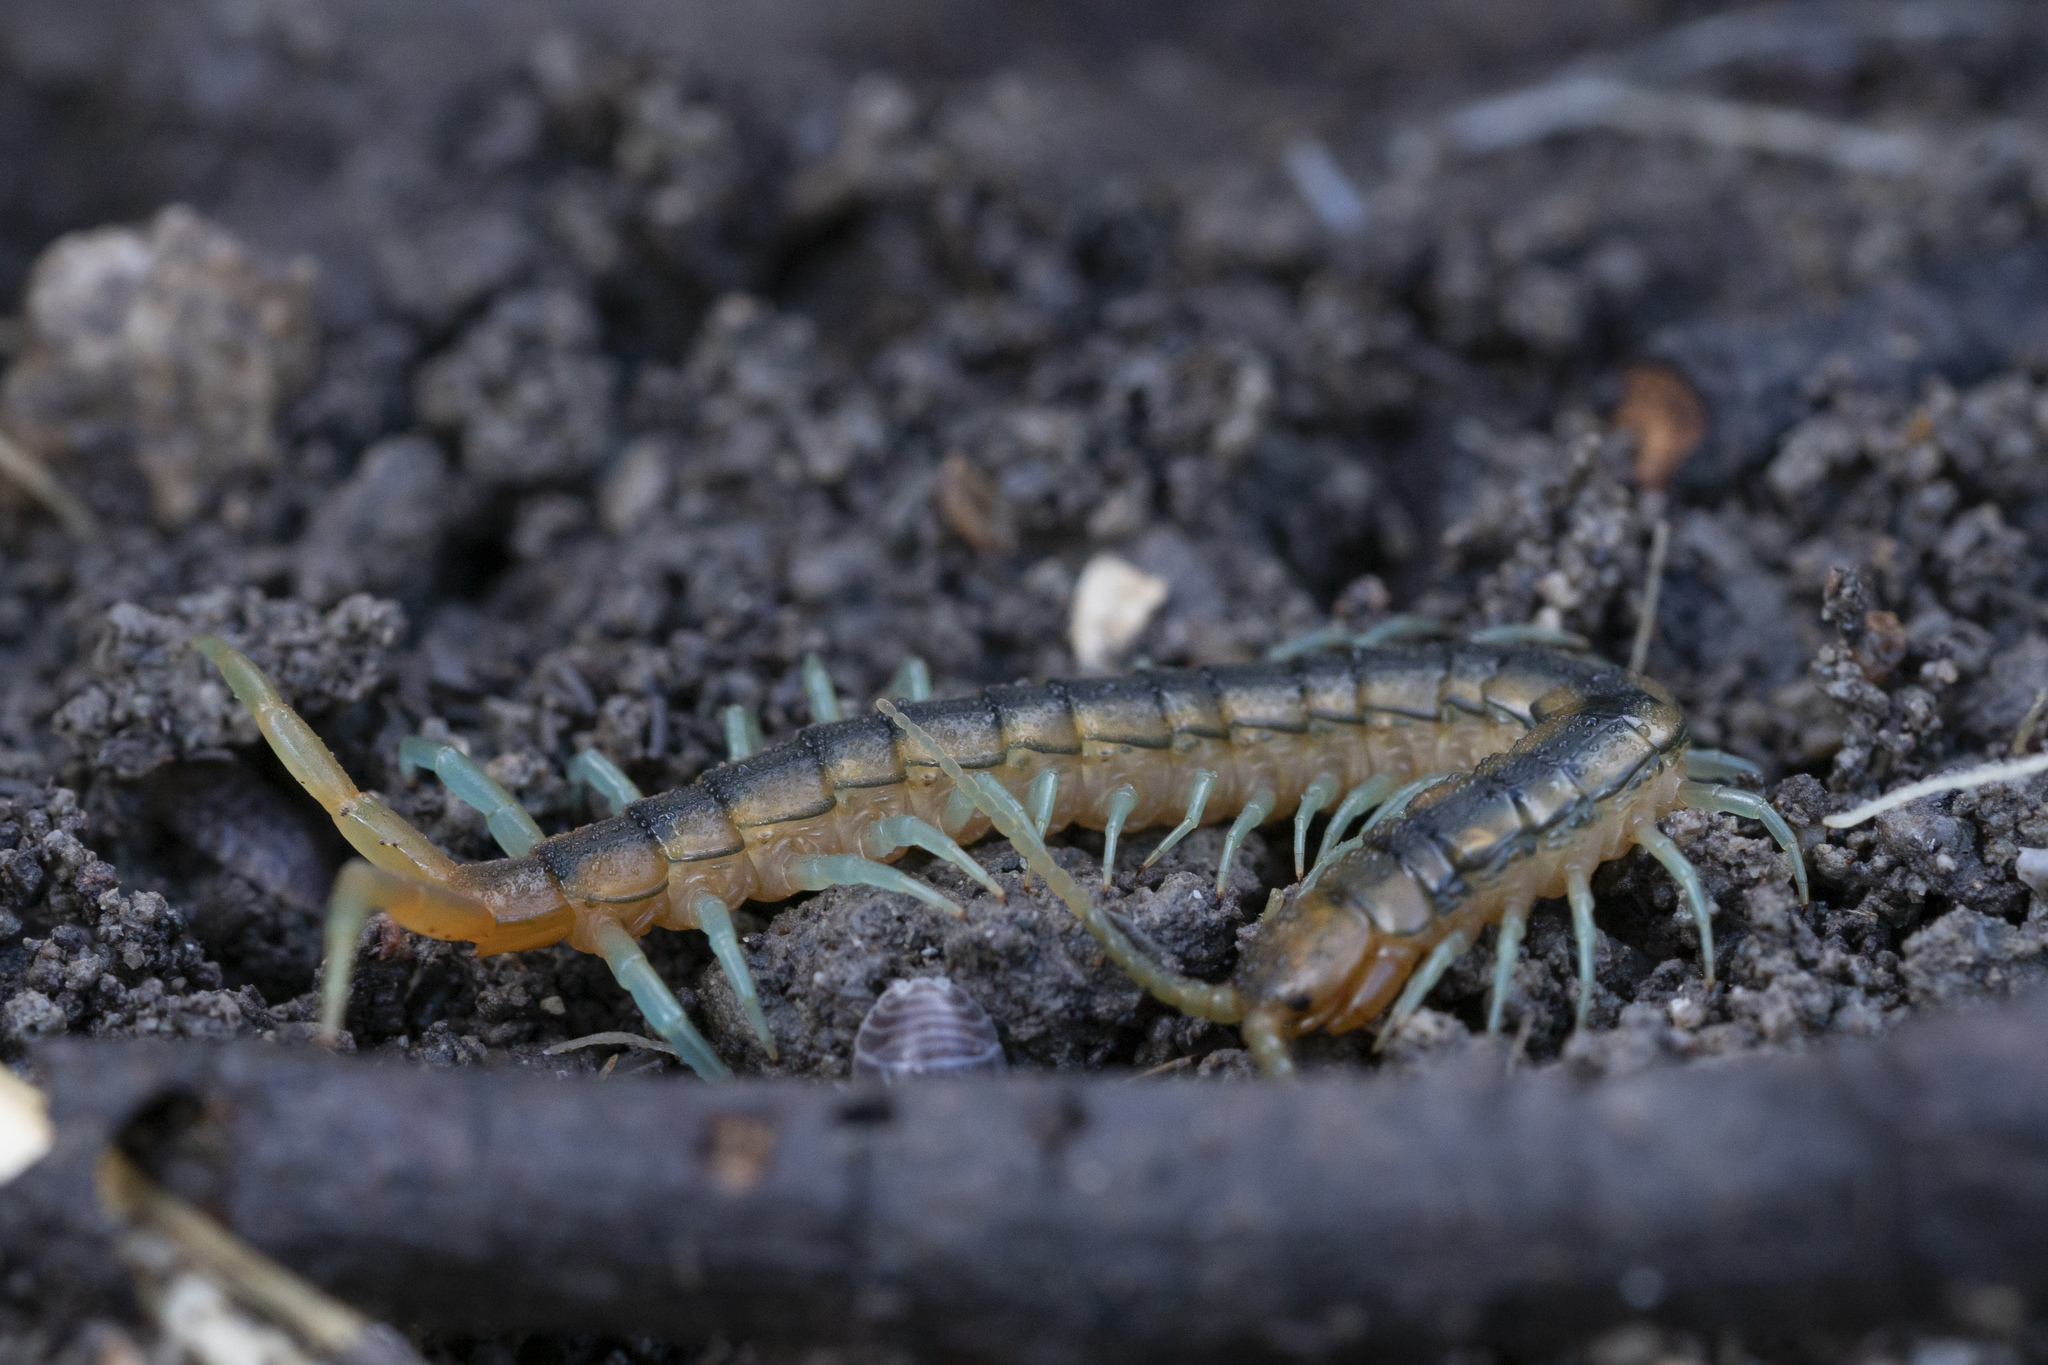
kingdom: Animalia
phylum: Arthropoda
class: Chilopoda
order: Scolopendromorpha
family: Scolopendridae
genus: Scolopendra
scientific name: Scolopendra cingulata
